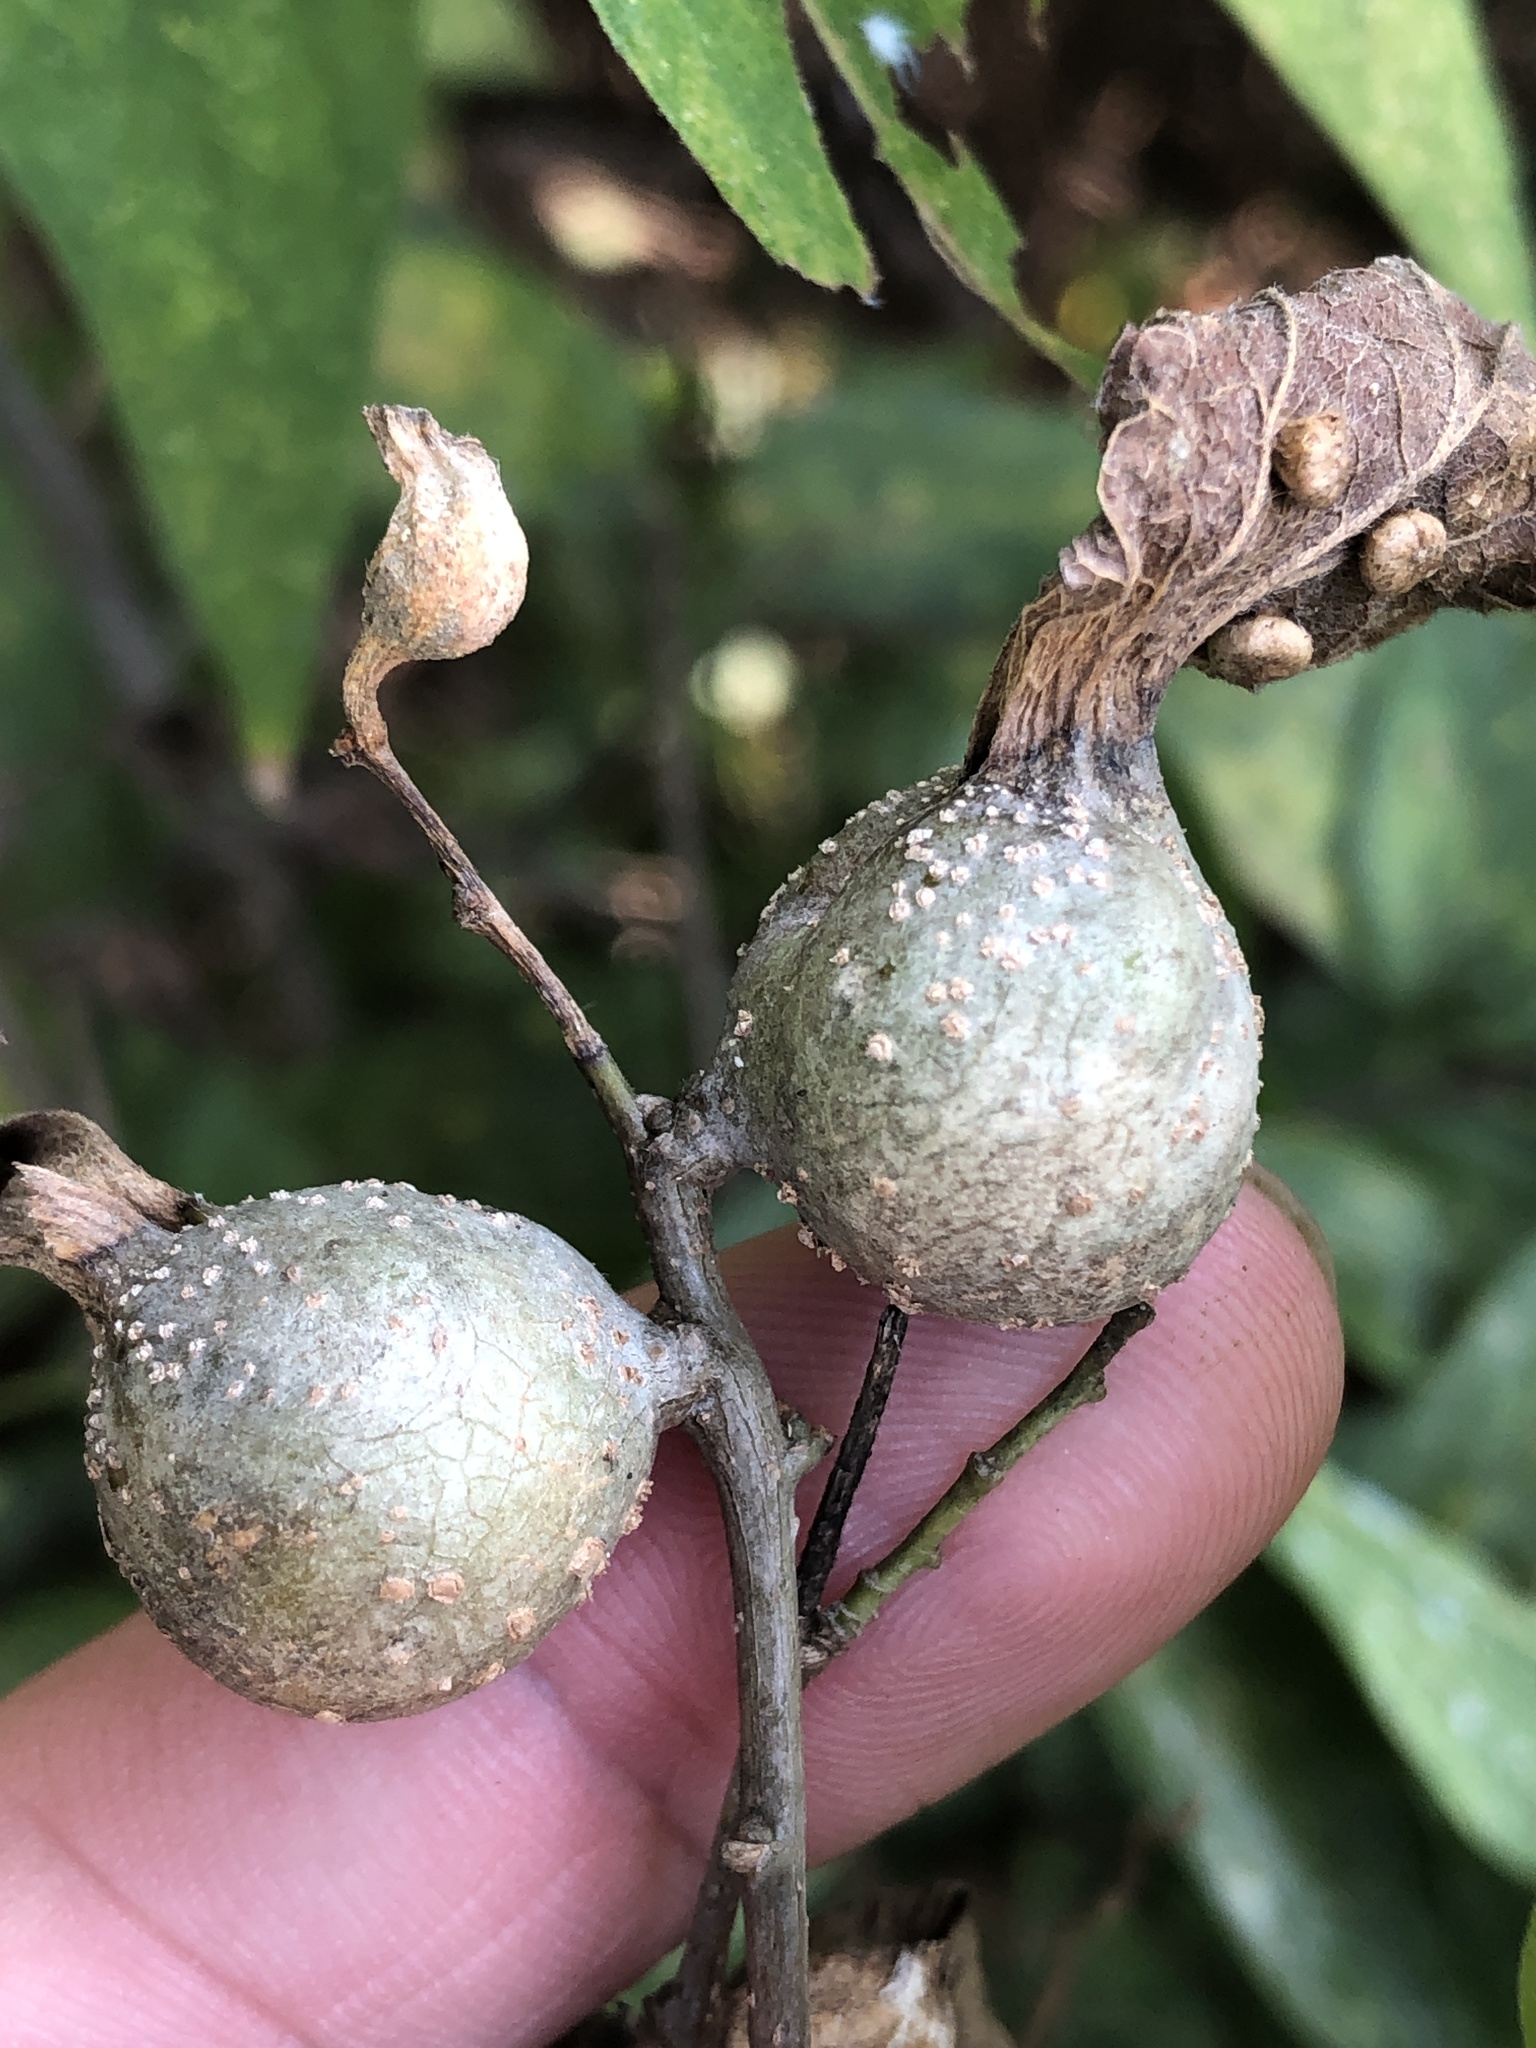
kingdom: Animalia
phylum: Arthropoda
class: Insecta
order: Hemiptera
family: Aphalaridae
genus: Pachypsylla
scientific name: Pachypsylla venusta
